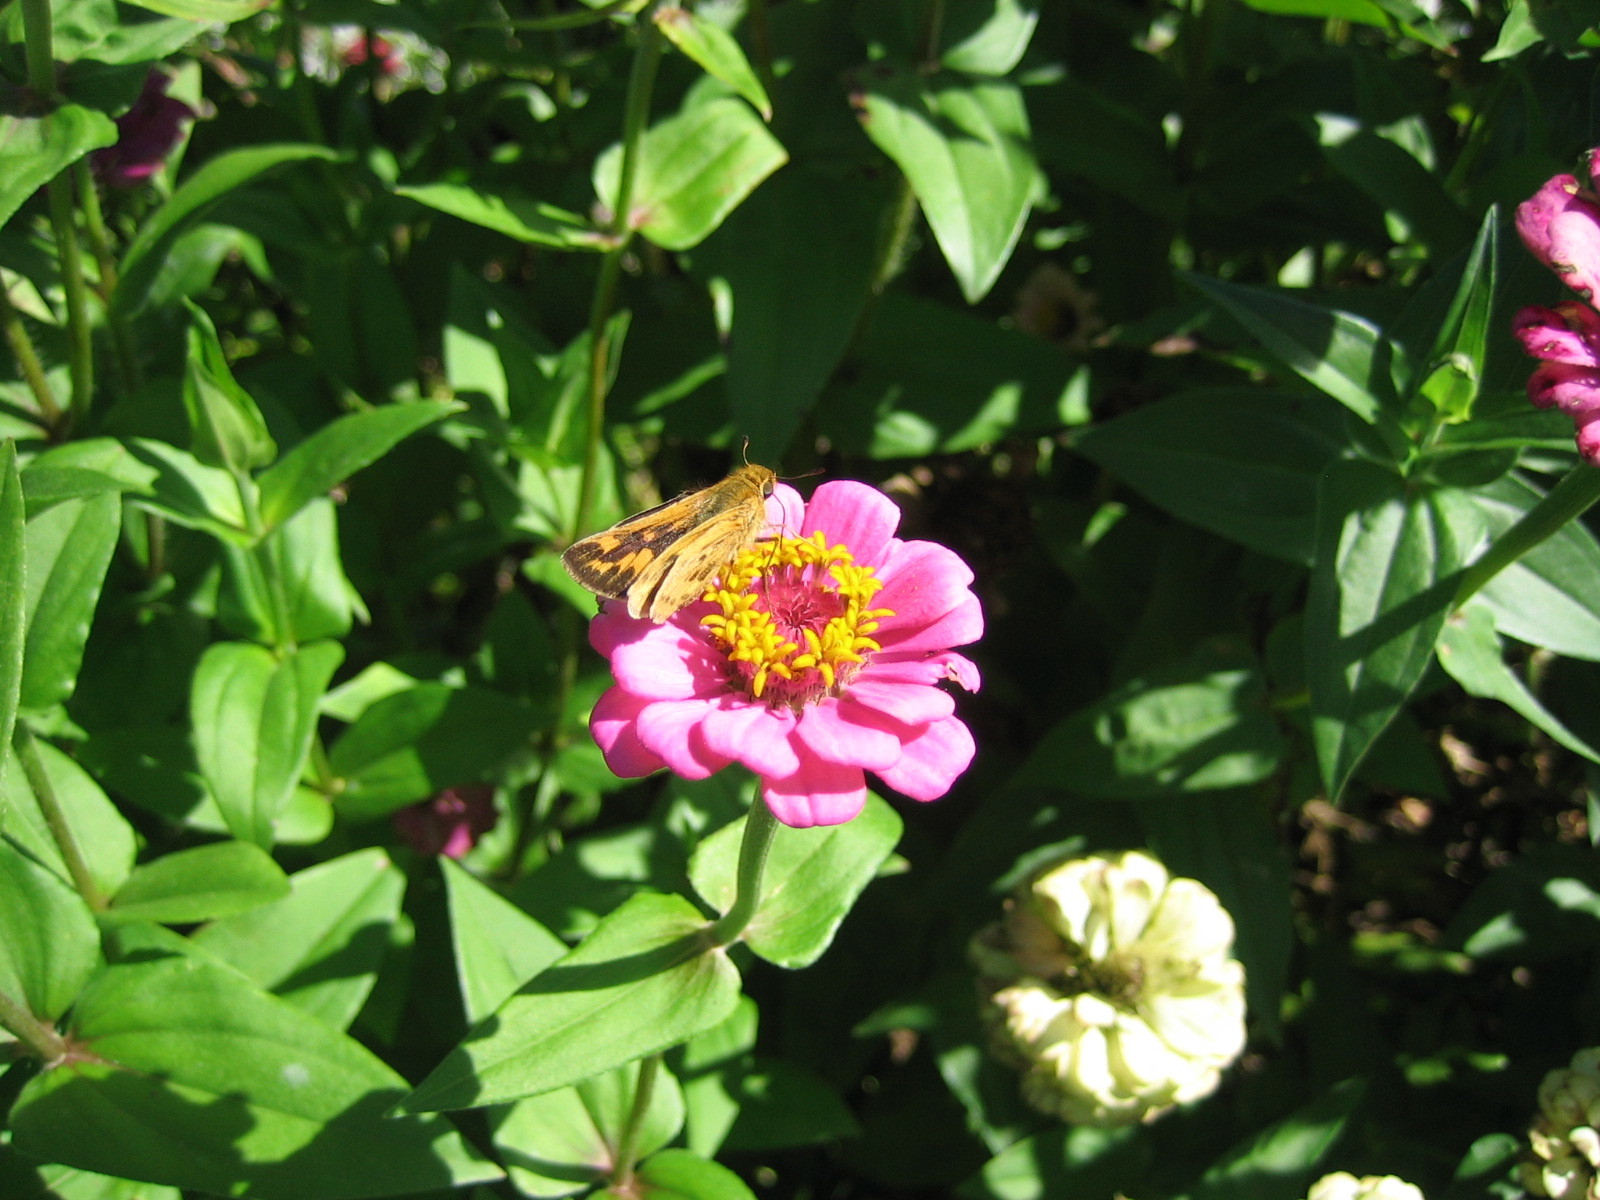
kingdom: Animalia
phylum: Arthropoda
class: Insecta
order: Lepidoptera
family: Hesperiidae
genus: Hylephila
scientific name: Hylephila phyleus
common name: Fiery skipper
